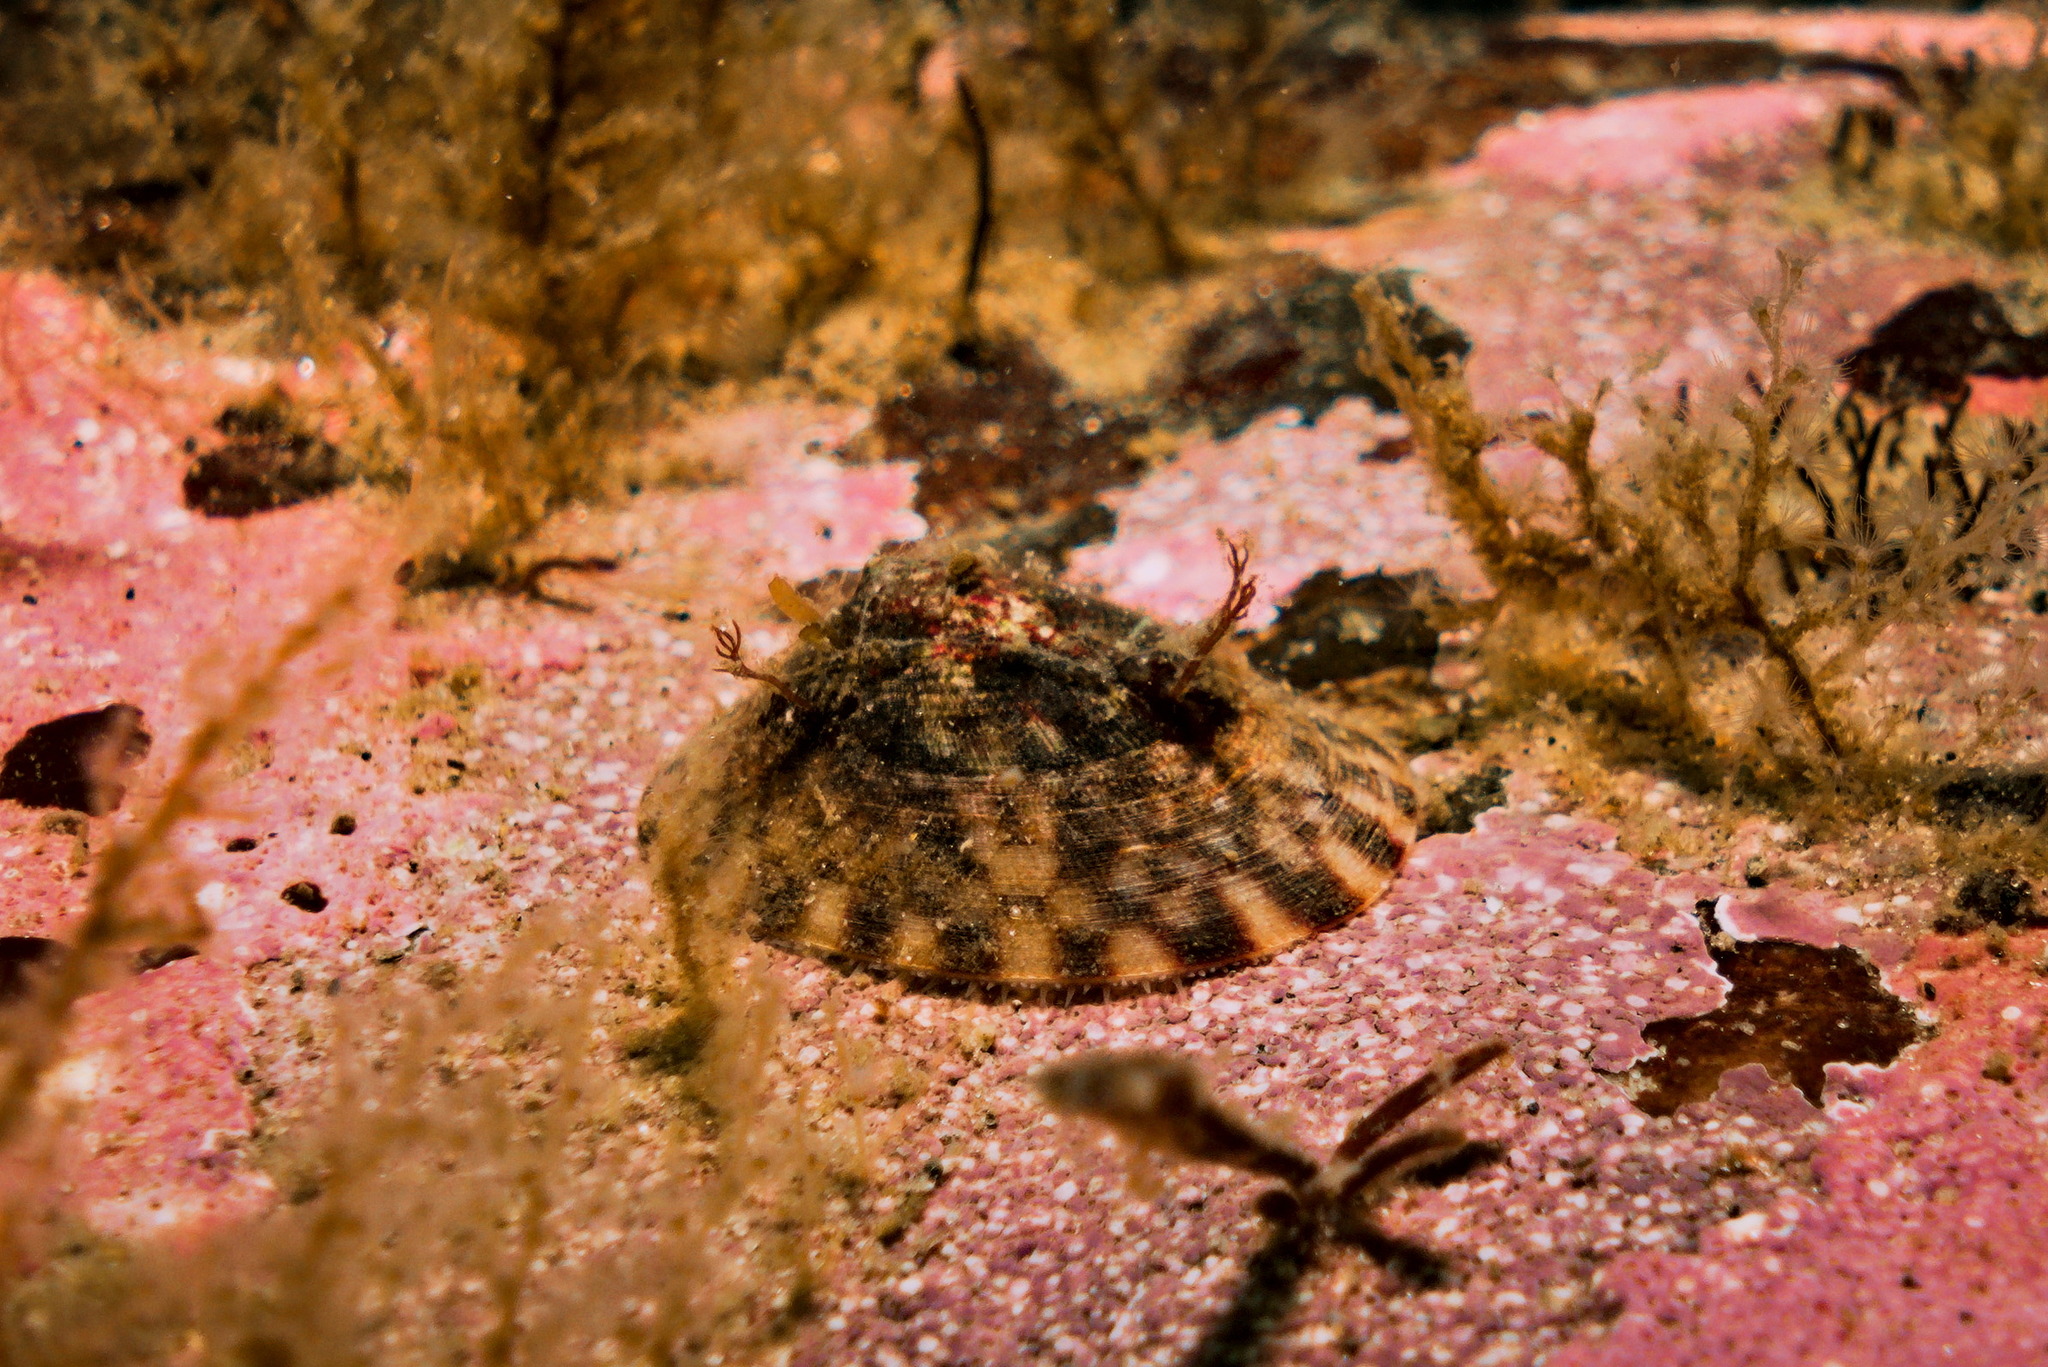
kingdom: Animalia
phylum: Mollusca
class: Gastropoda
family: Lottiidae
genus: Testudinalia
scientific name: Testudinalia testudinalis
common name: Common tortoiseshell limpet
